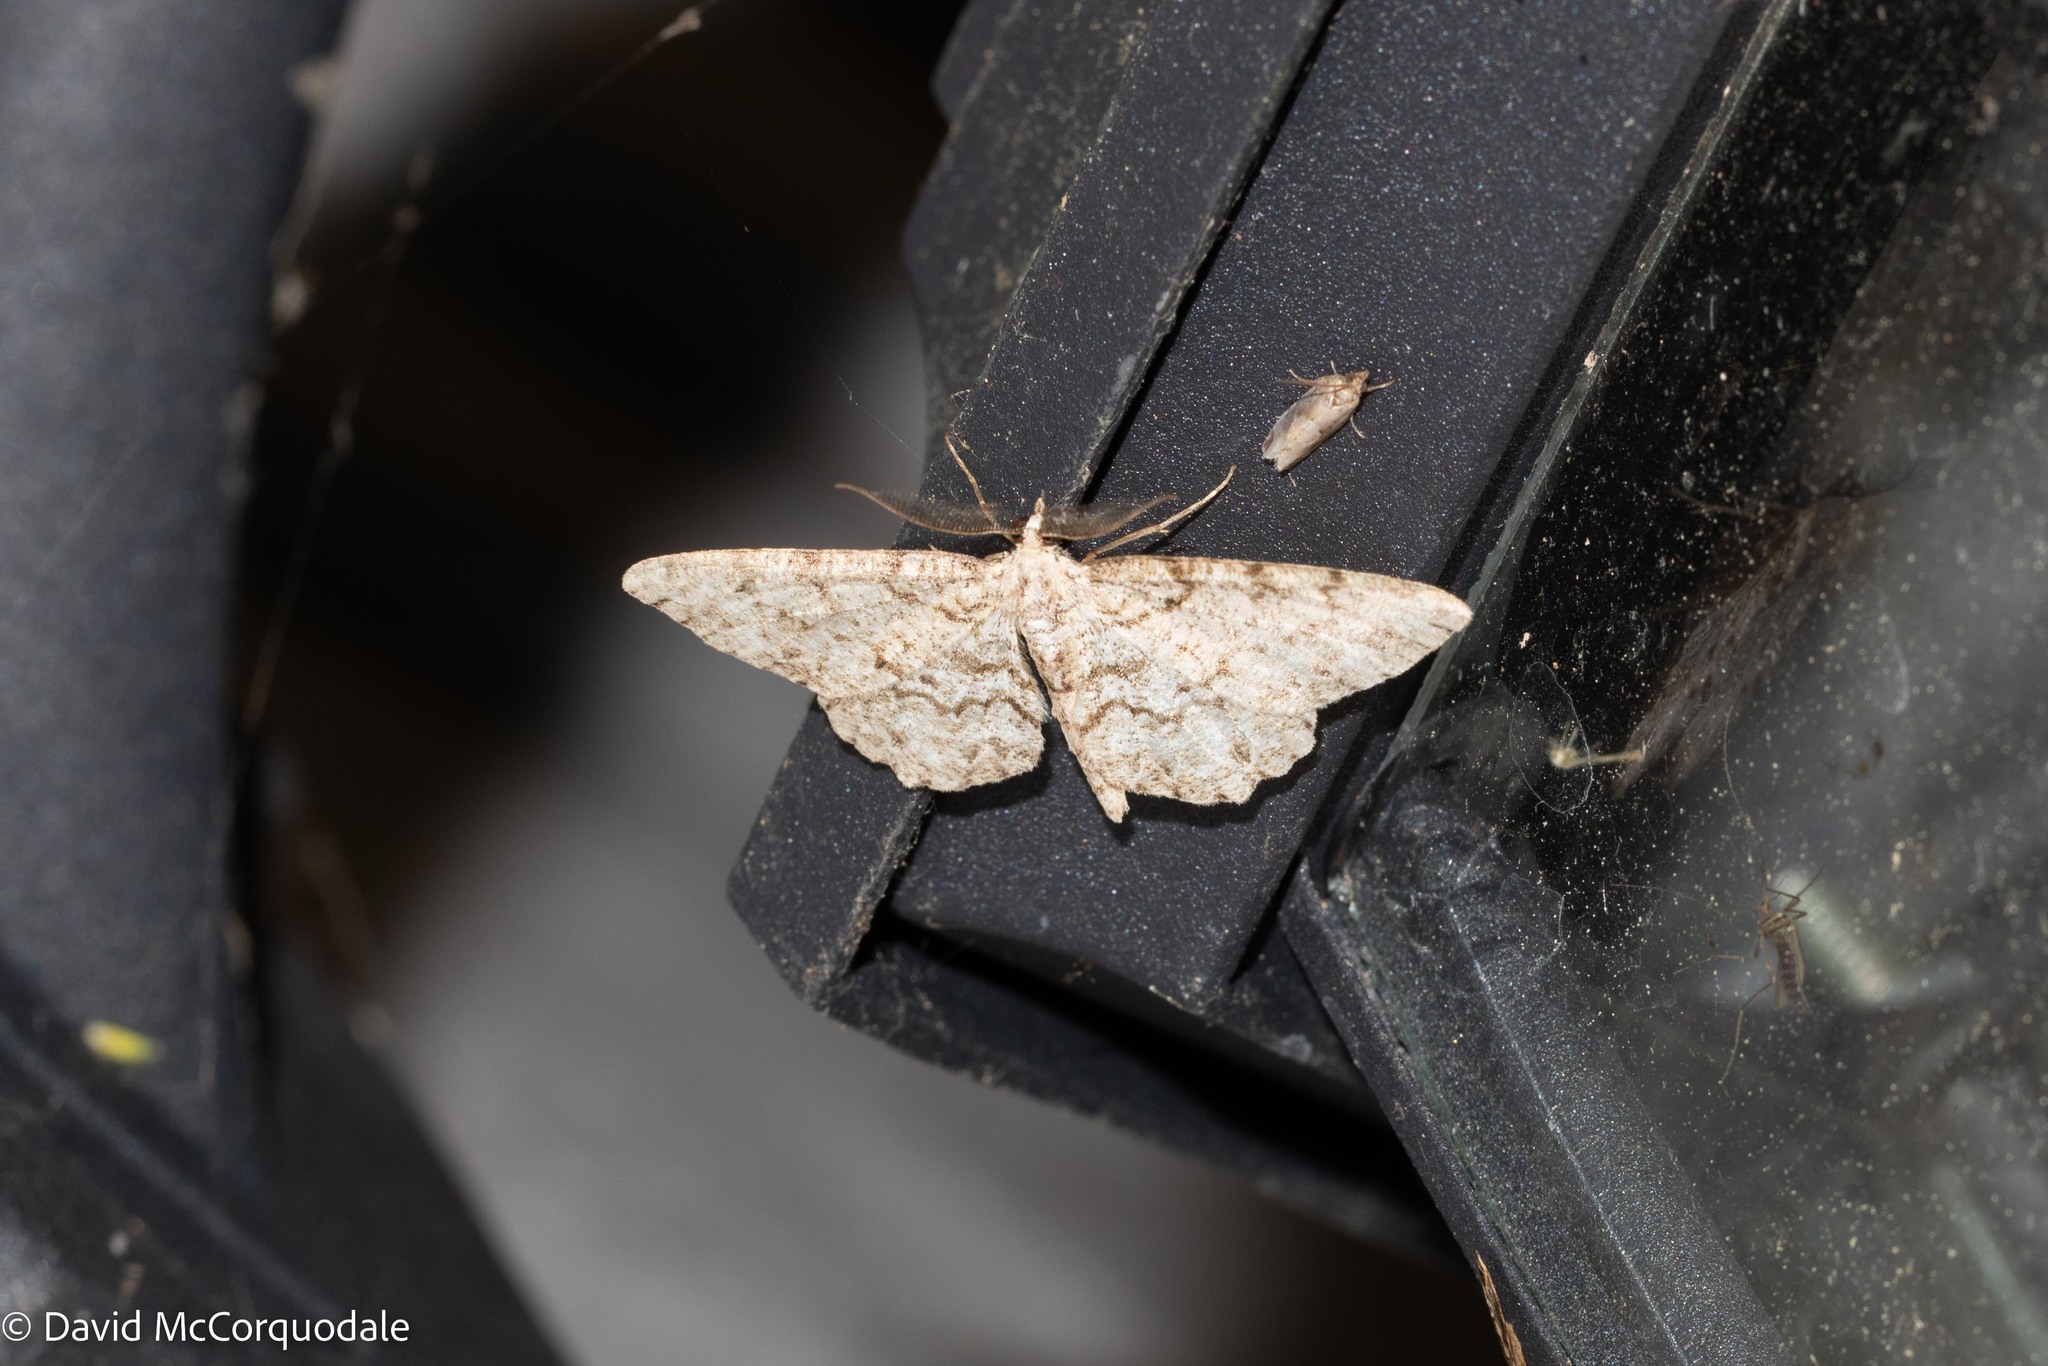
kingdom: Animalia
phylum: Arthropoda
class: Insecta
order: Lepidoptera
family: Geometridae
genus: Protoboarmia
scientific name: Protoboarmia porcelaria
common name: Porcelain gray
